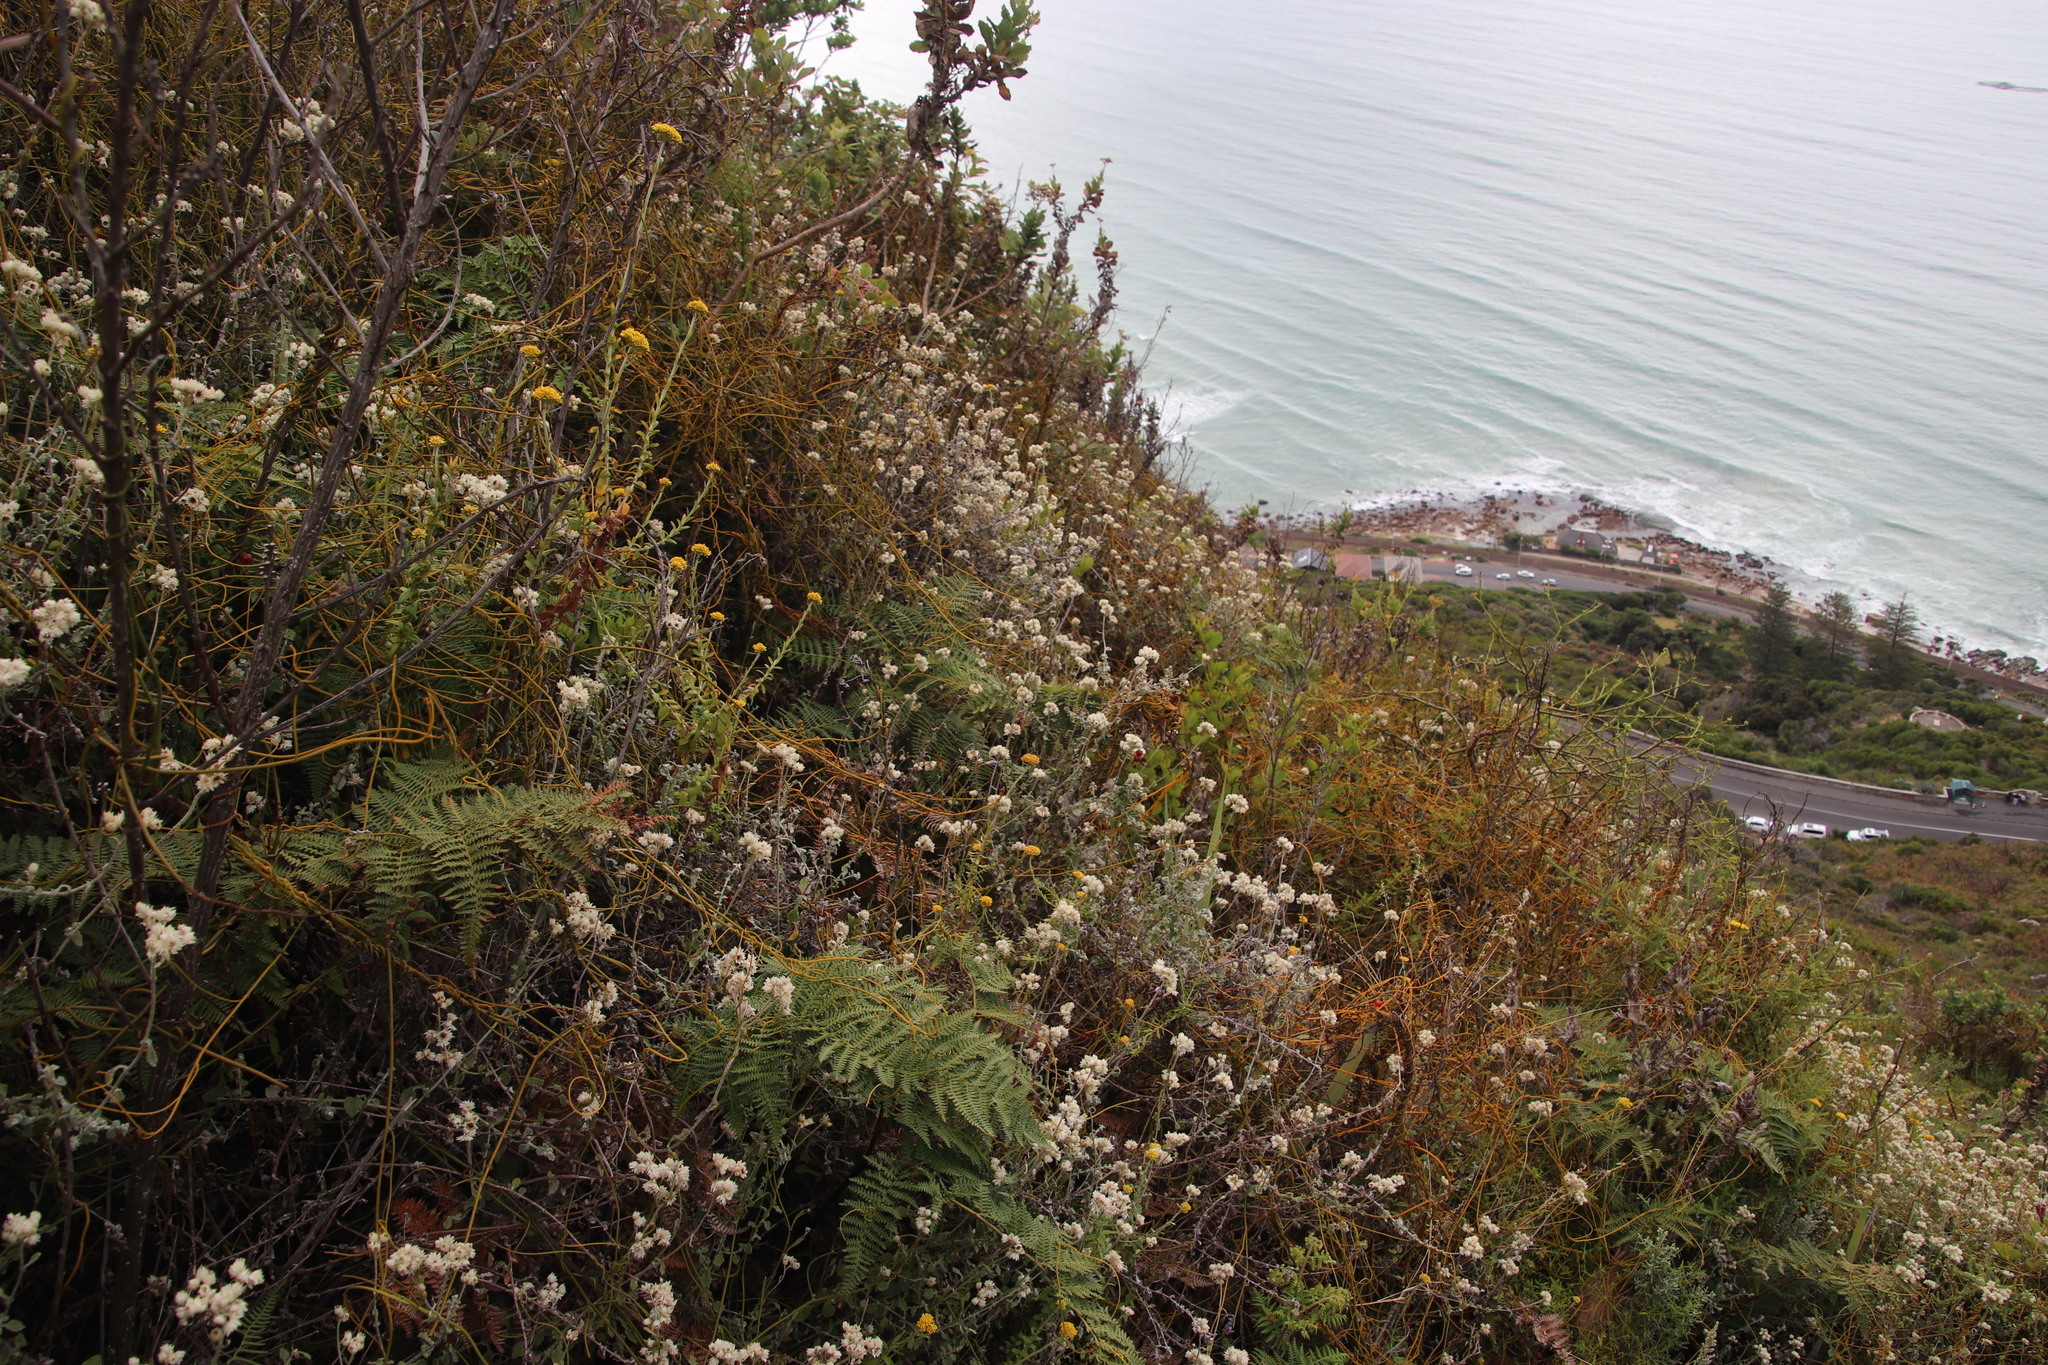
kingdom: Plantae
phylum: Tracheophyta
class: Magnoliopsida
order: Asterales
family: Asteraceae
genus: Helichrysum
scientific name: Helichrysum pandurifolium
